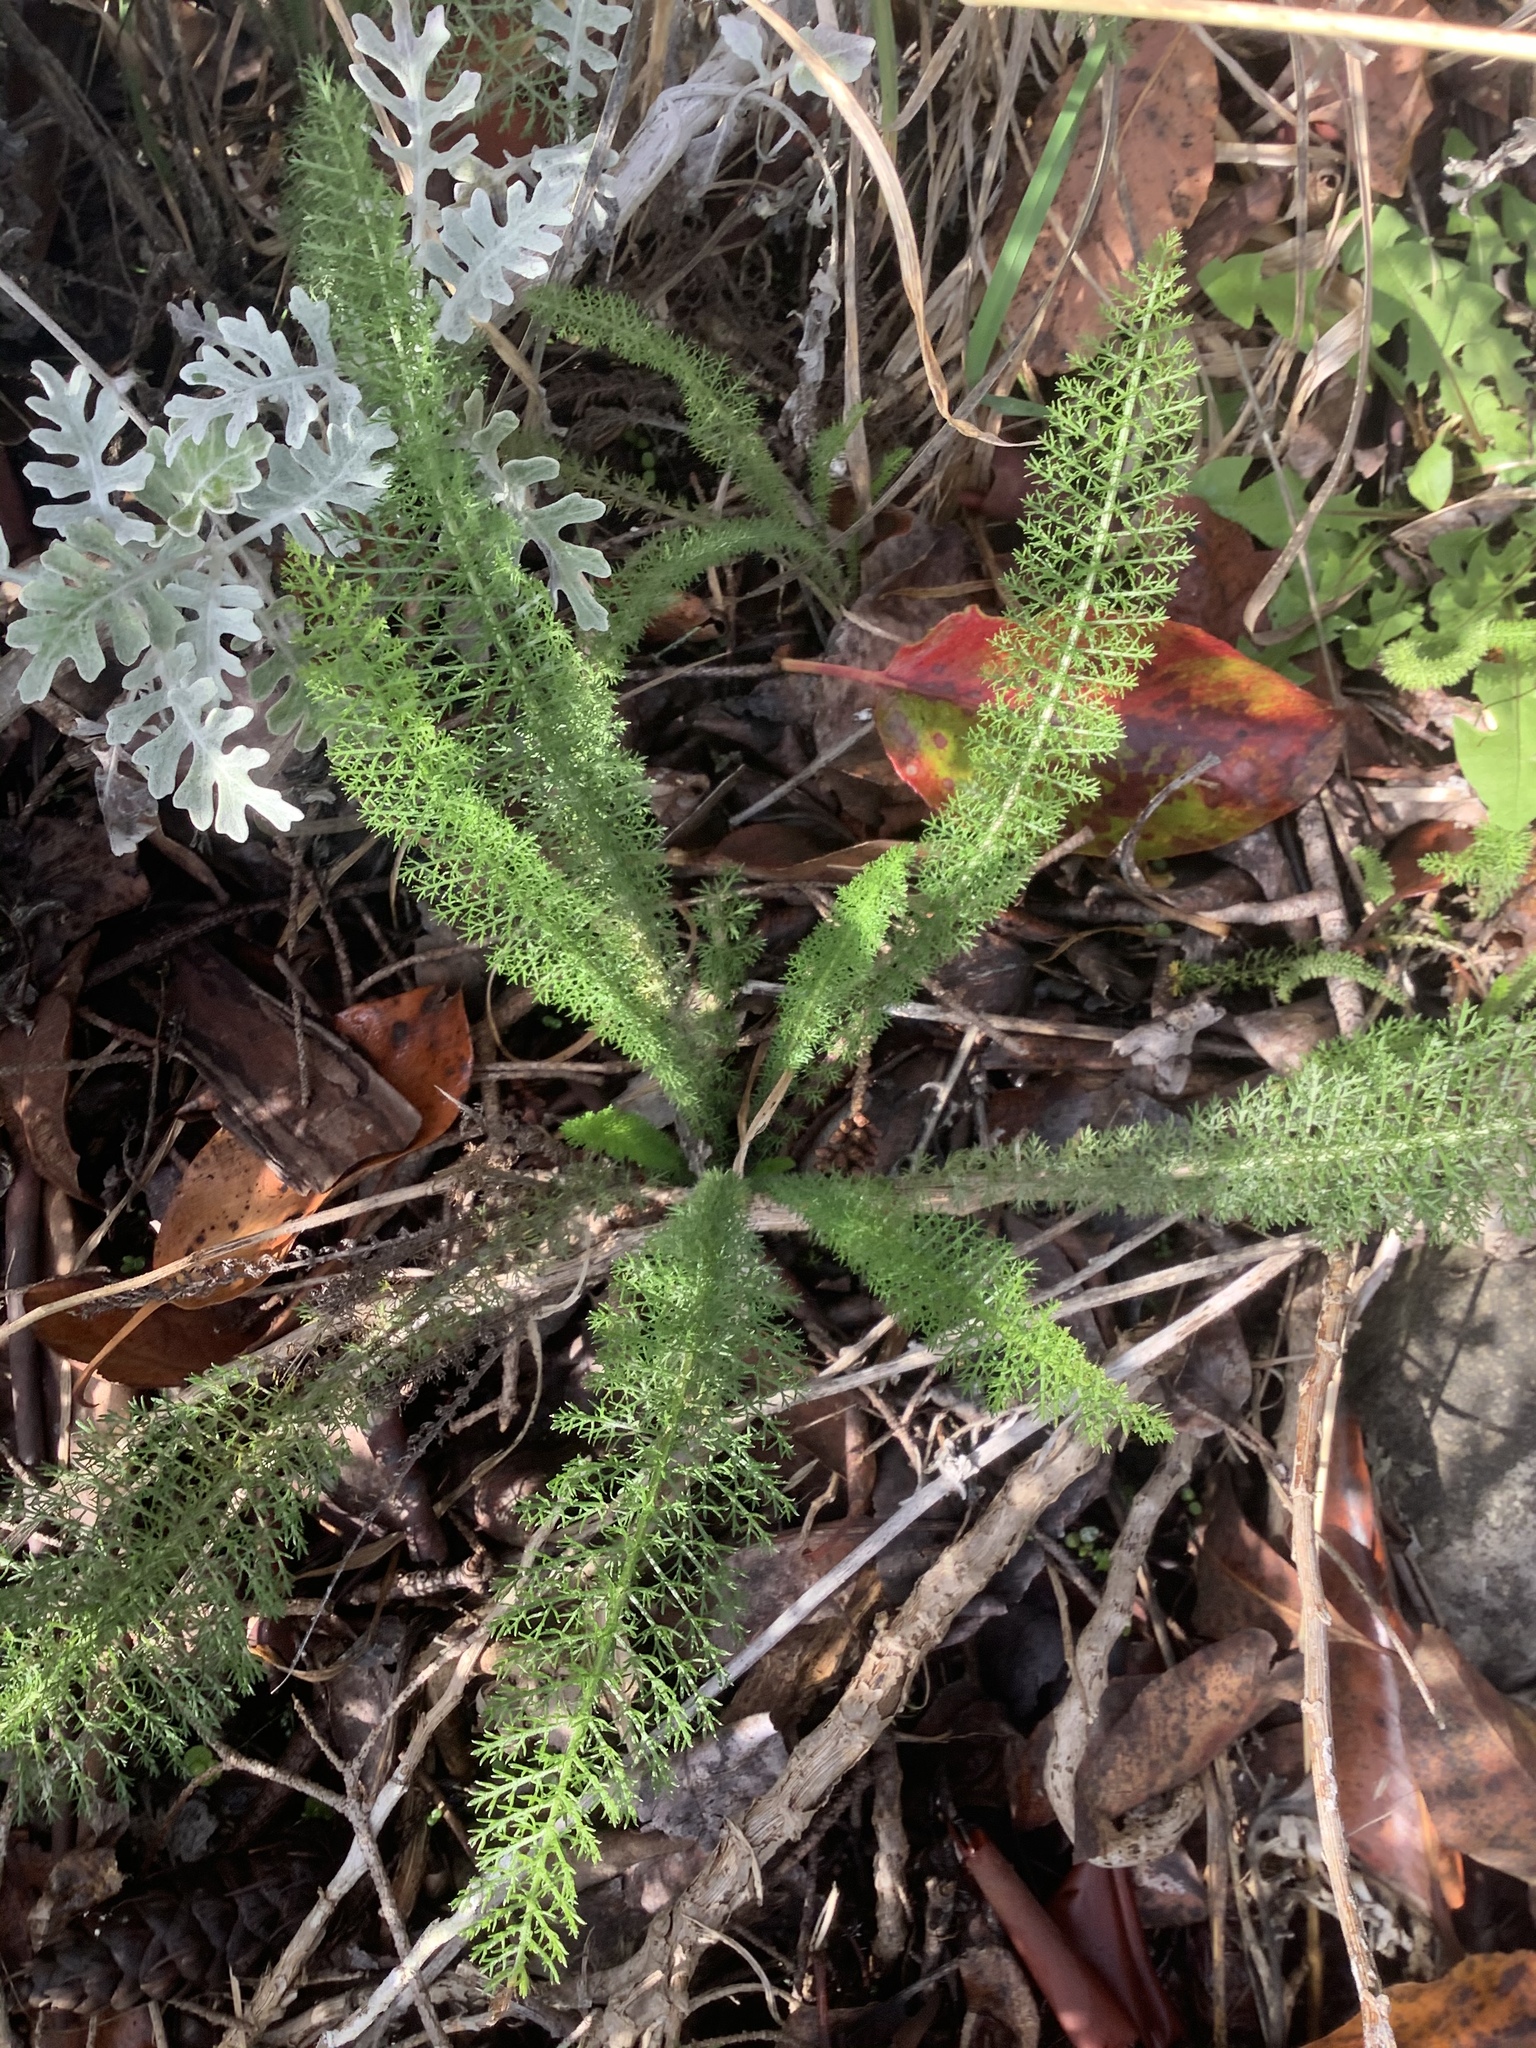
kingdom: Plantae
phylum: Tracheophyta
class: Magnoliopsida
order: Asterales
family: Asteraceae
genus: Achillea
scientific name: Achillea millefolium
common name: Yarrow
